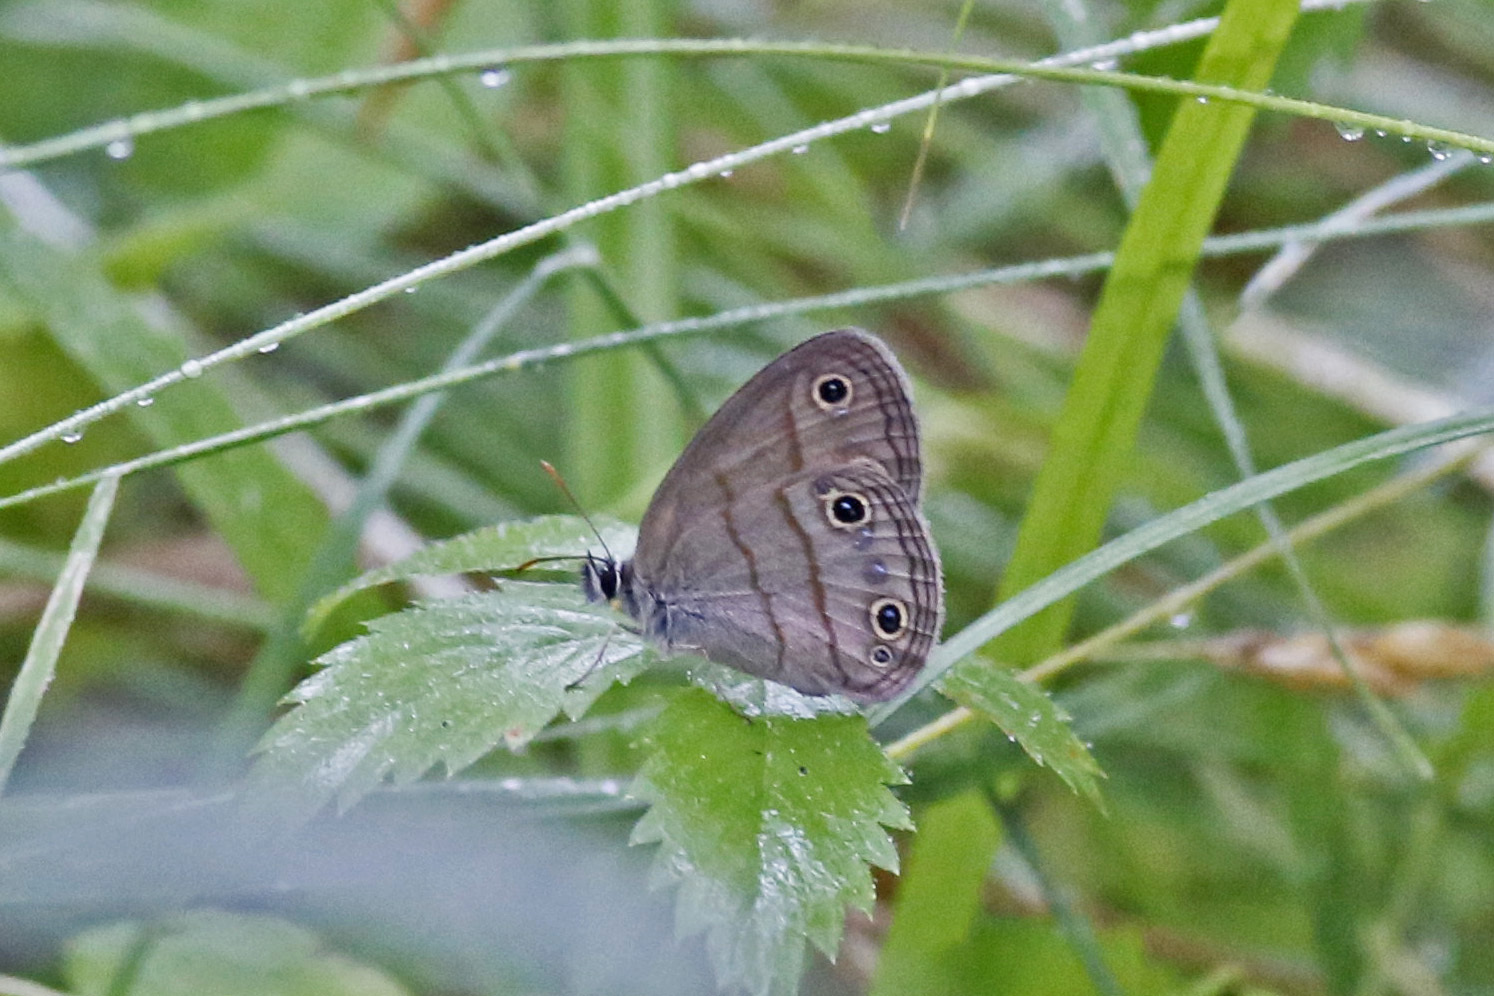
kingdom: Animalia
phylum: Arthropoda
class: Insecta
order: Lepidoptera
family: Nymphalidae
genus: Euptychia
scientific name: Euptychia cymela
